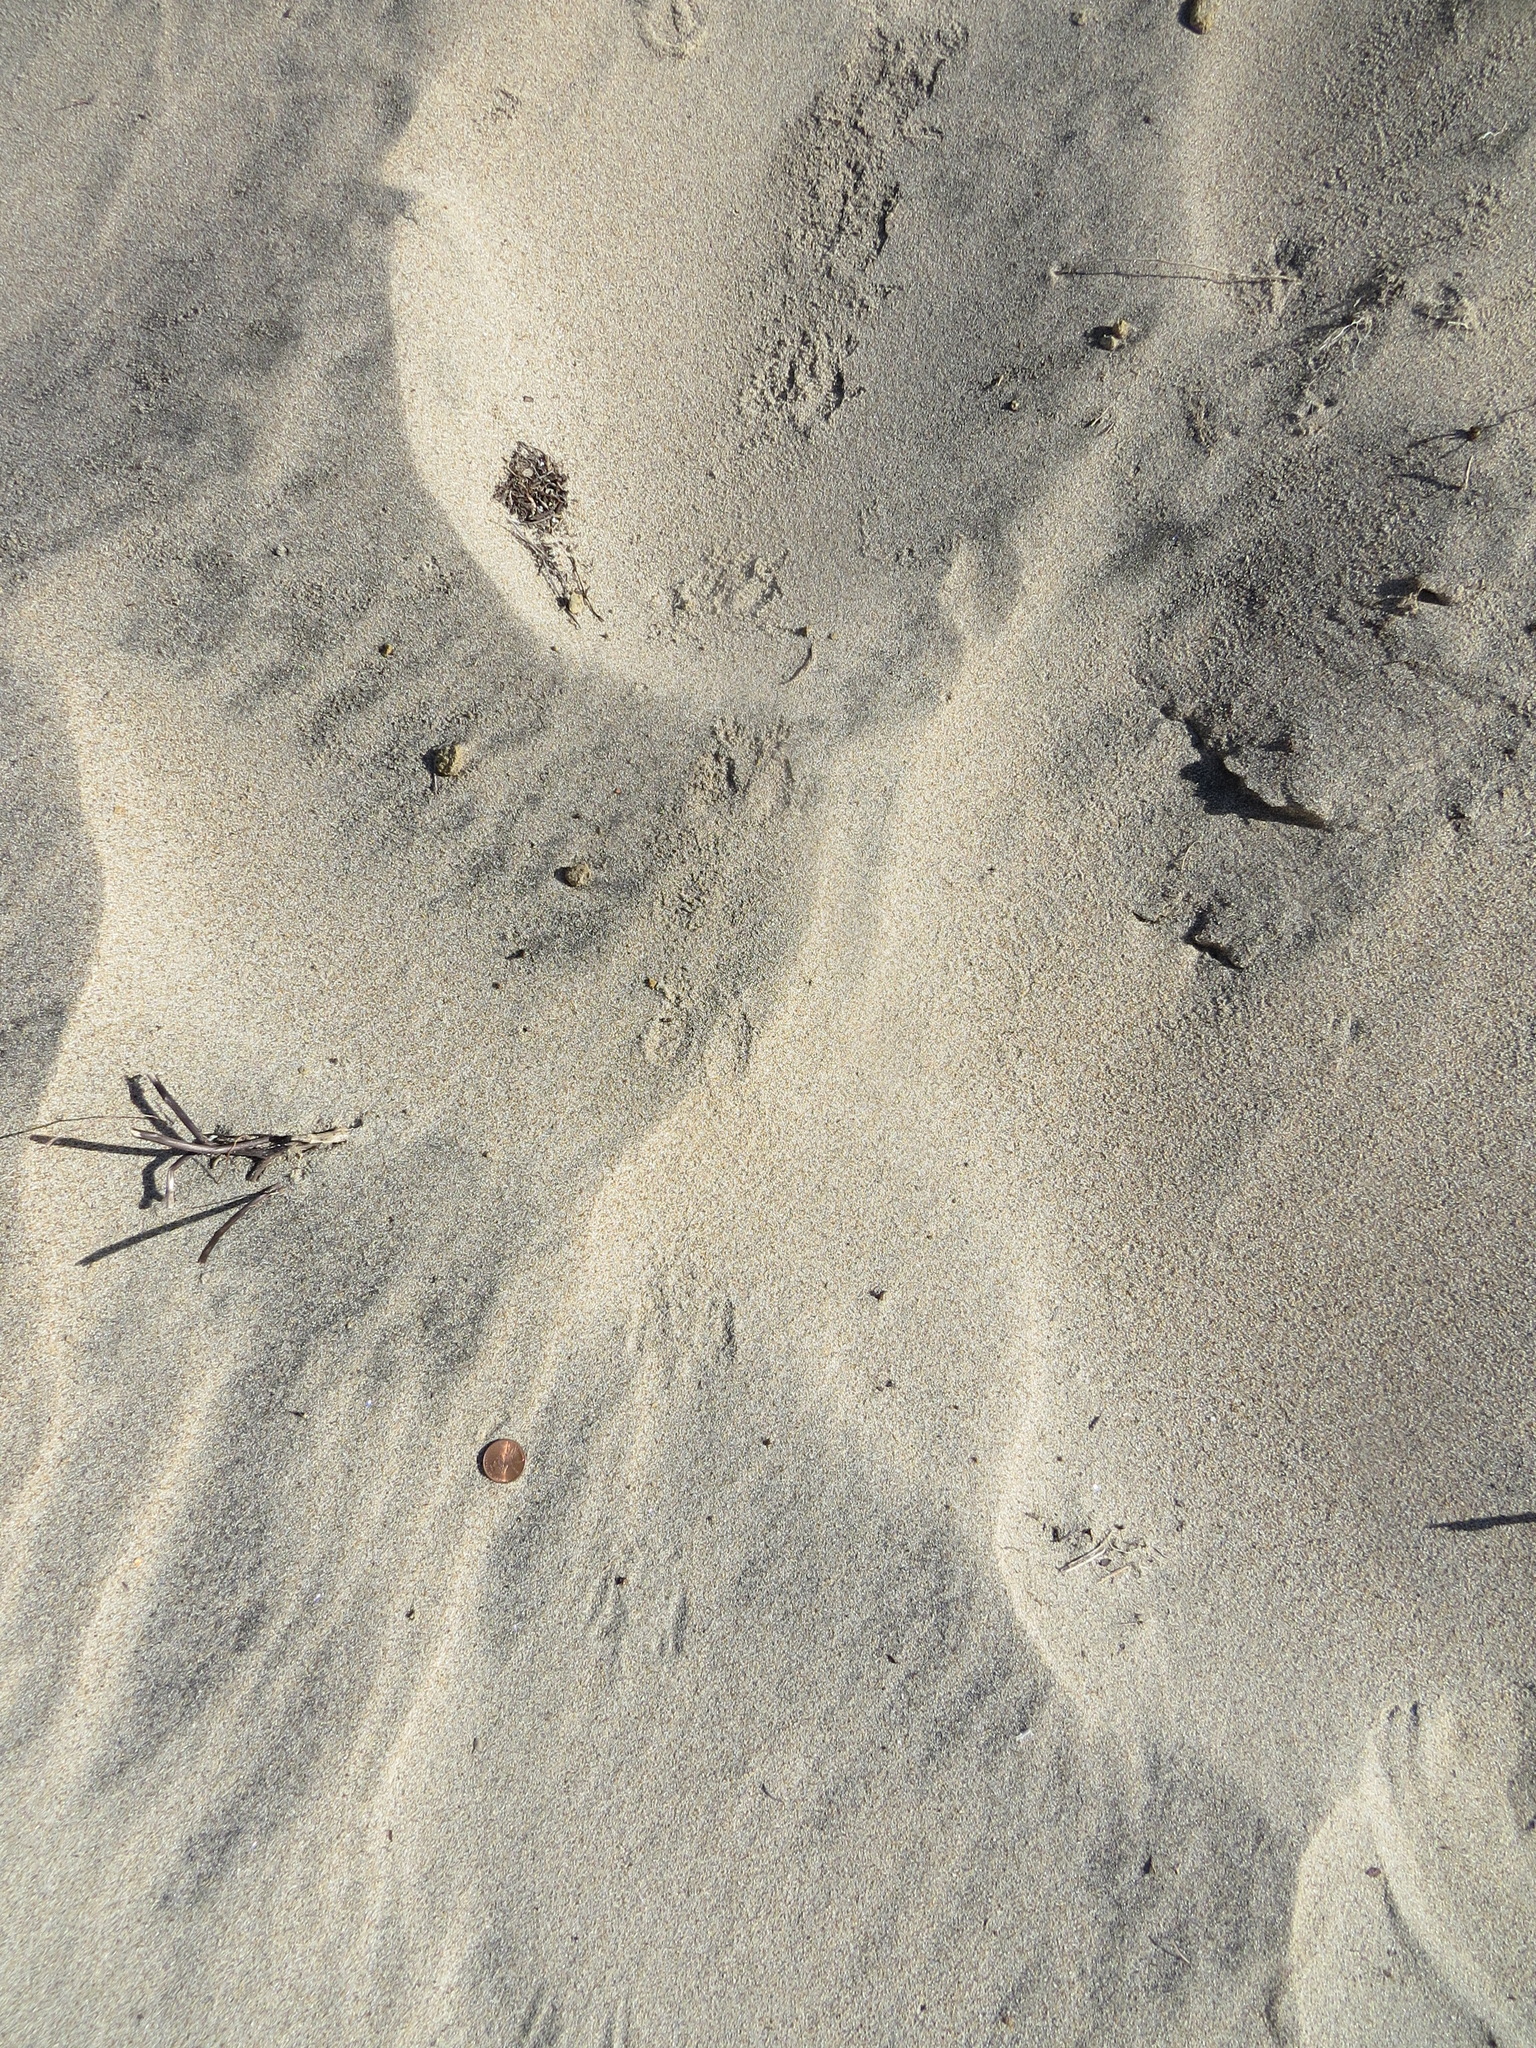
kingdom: Animalia
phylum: Chordata
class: Amphibia
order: Anura
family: Hylidae
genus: Pseudacris
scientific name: Pseudacris regilla
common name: Pacific chorus frog
